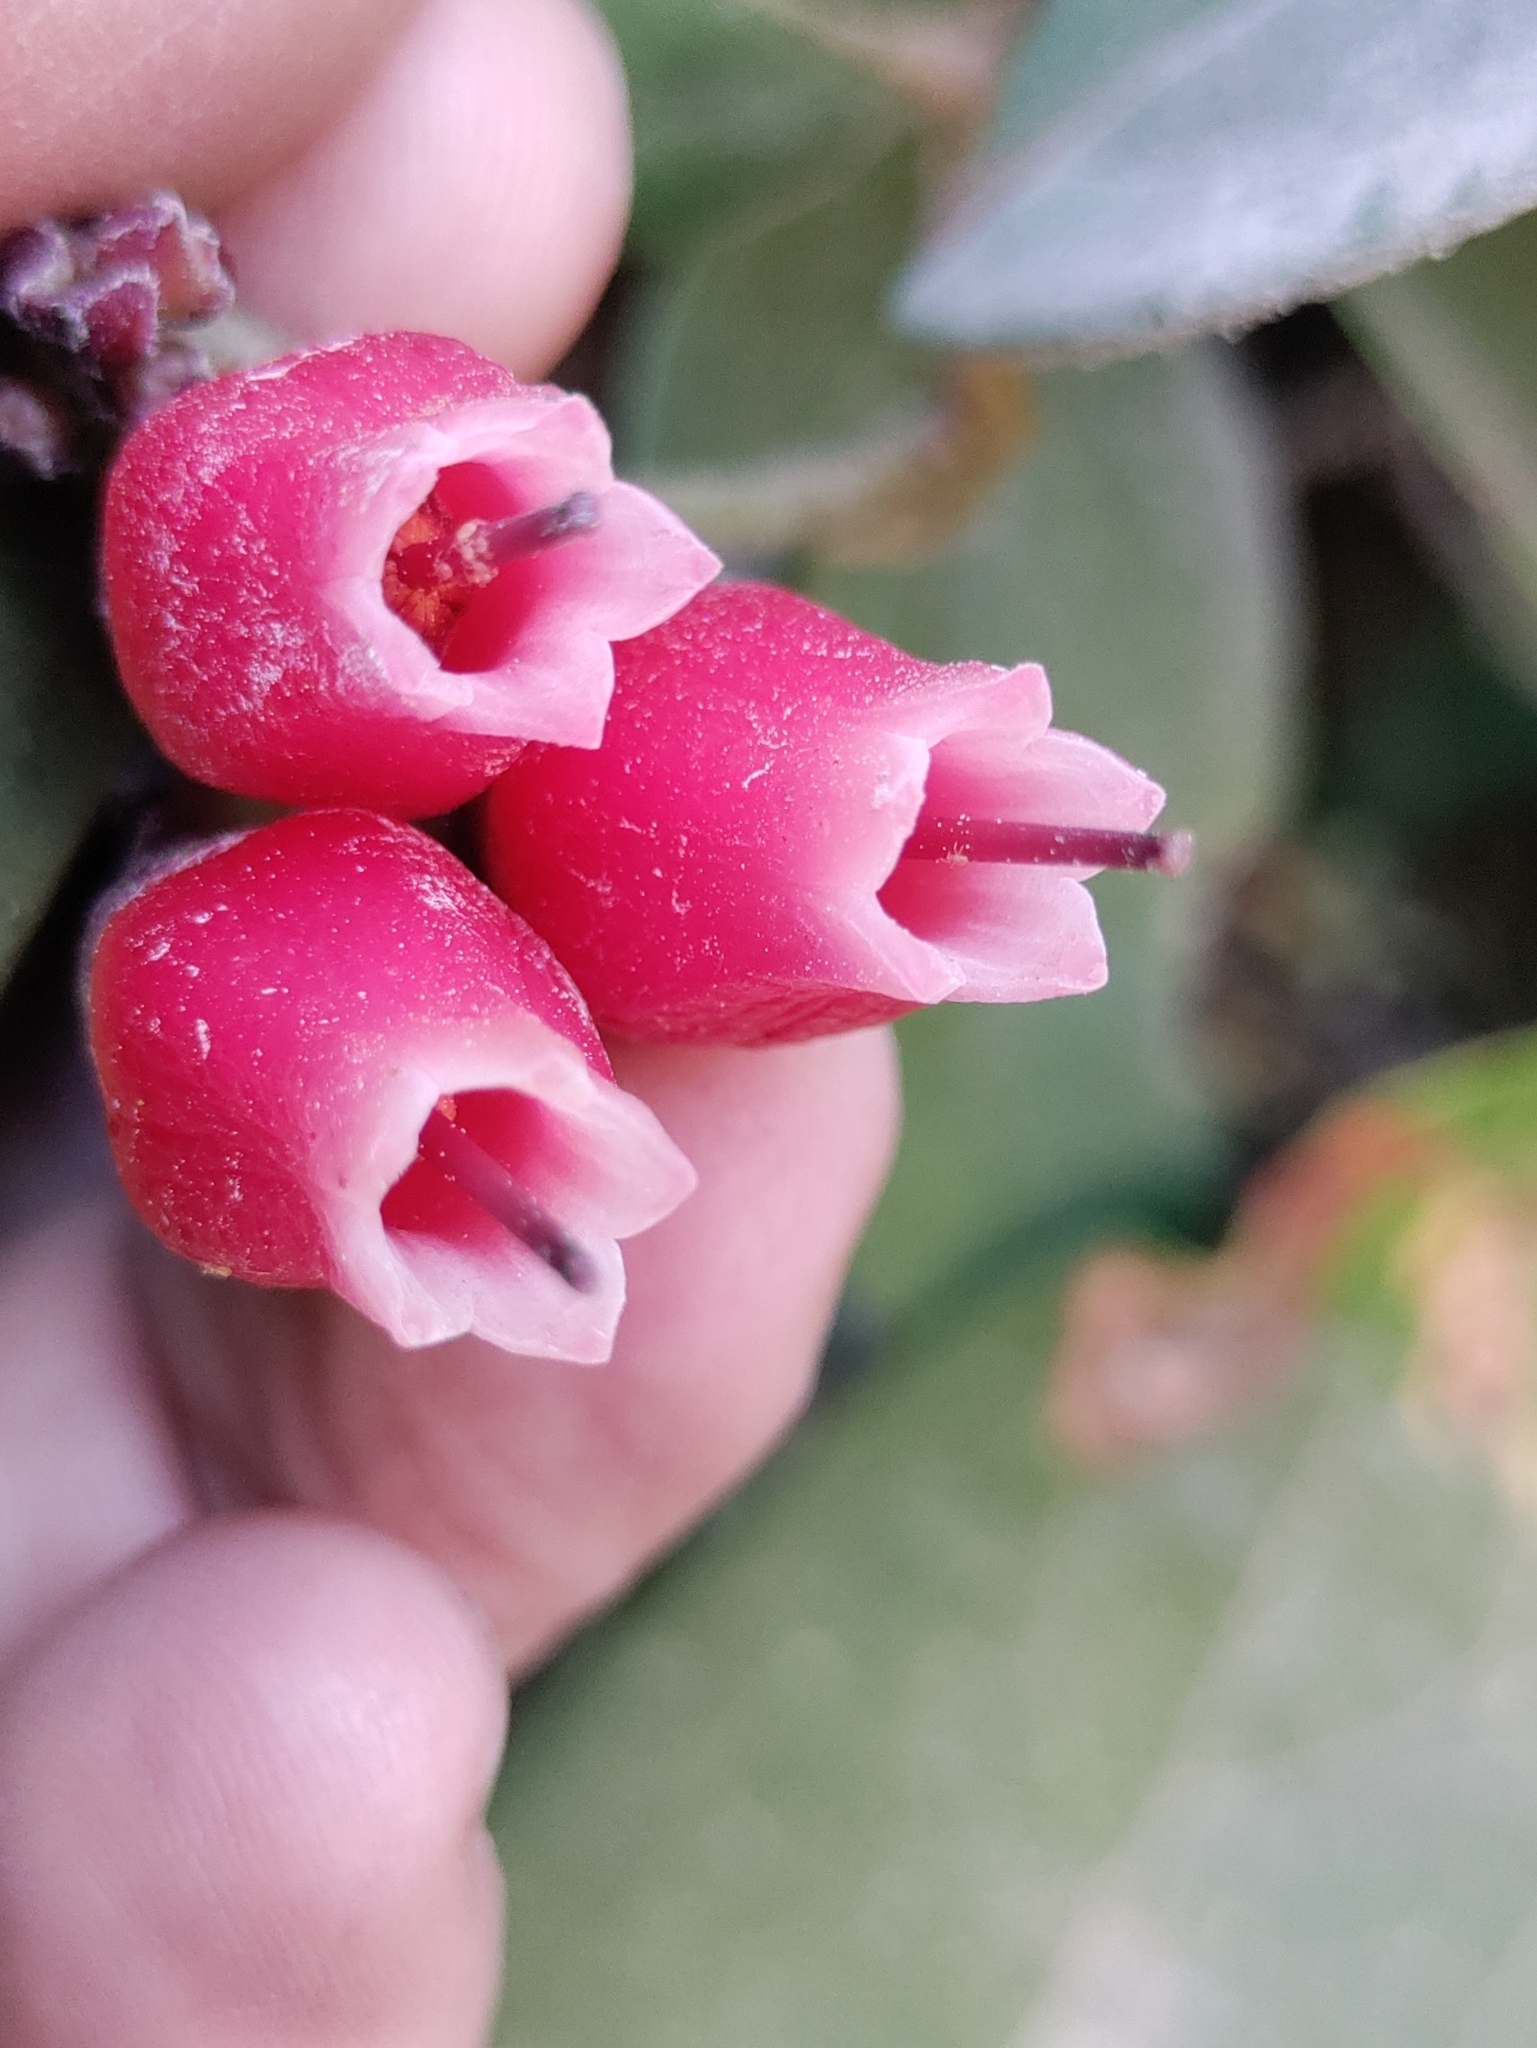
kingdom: Plantae
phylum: Tracheophyta
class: Magnoliopsida
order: Ericales
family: Ericaceae
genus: Macleania
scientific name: Macleania rupestris
